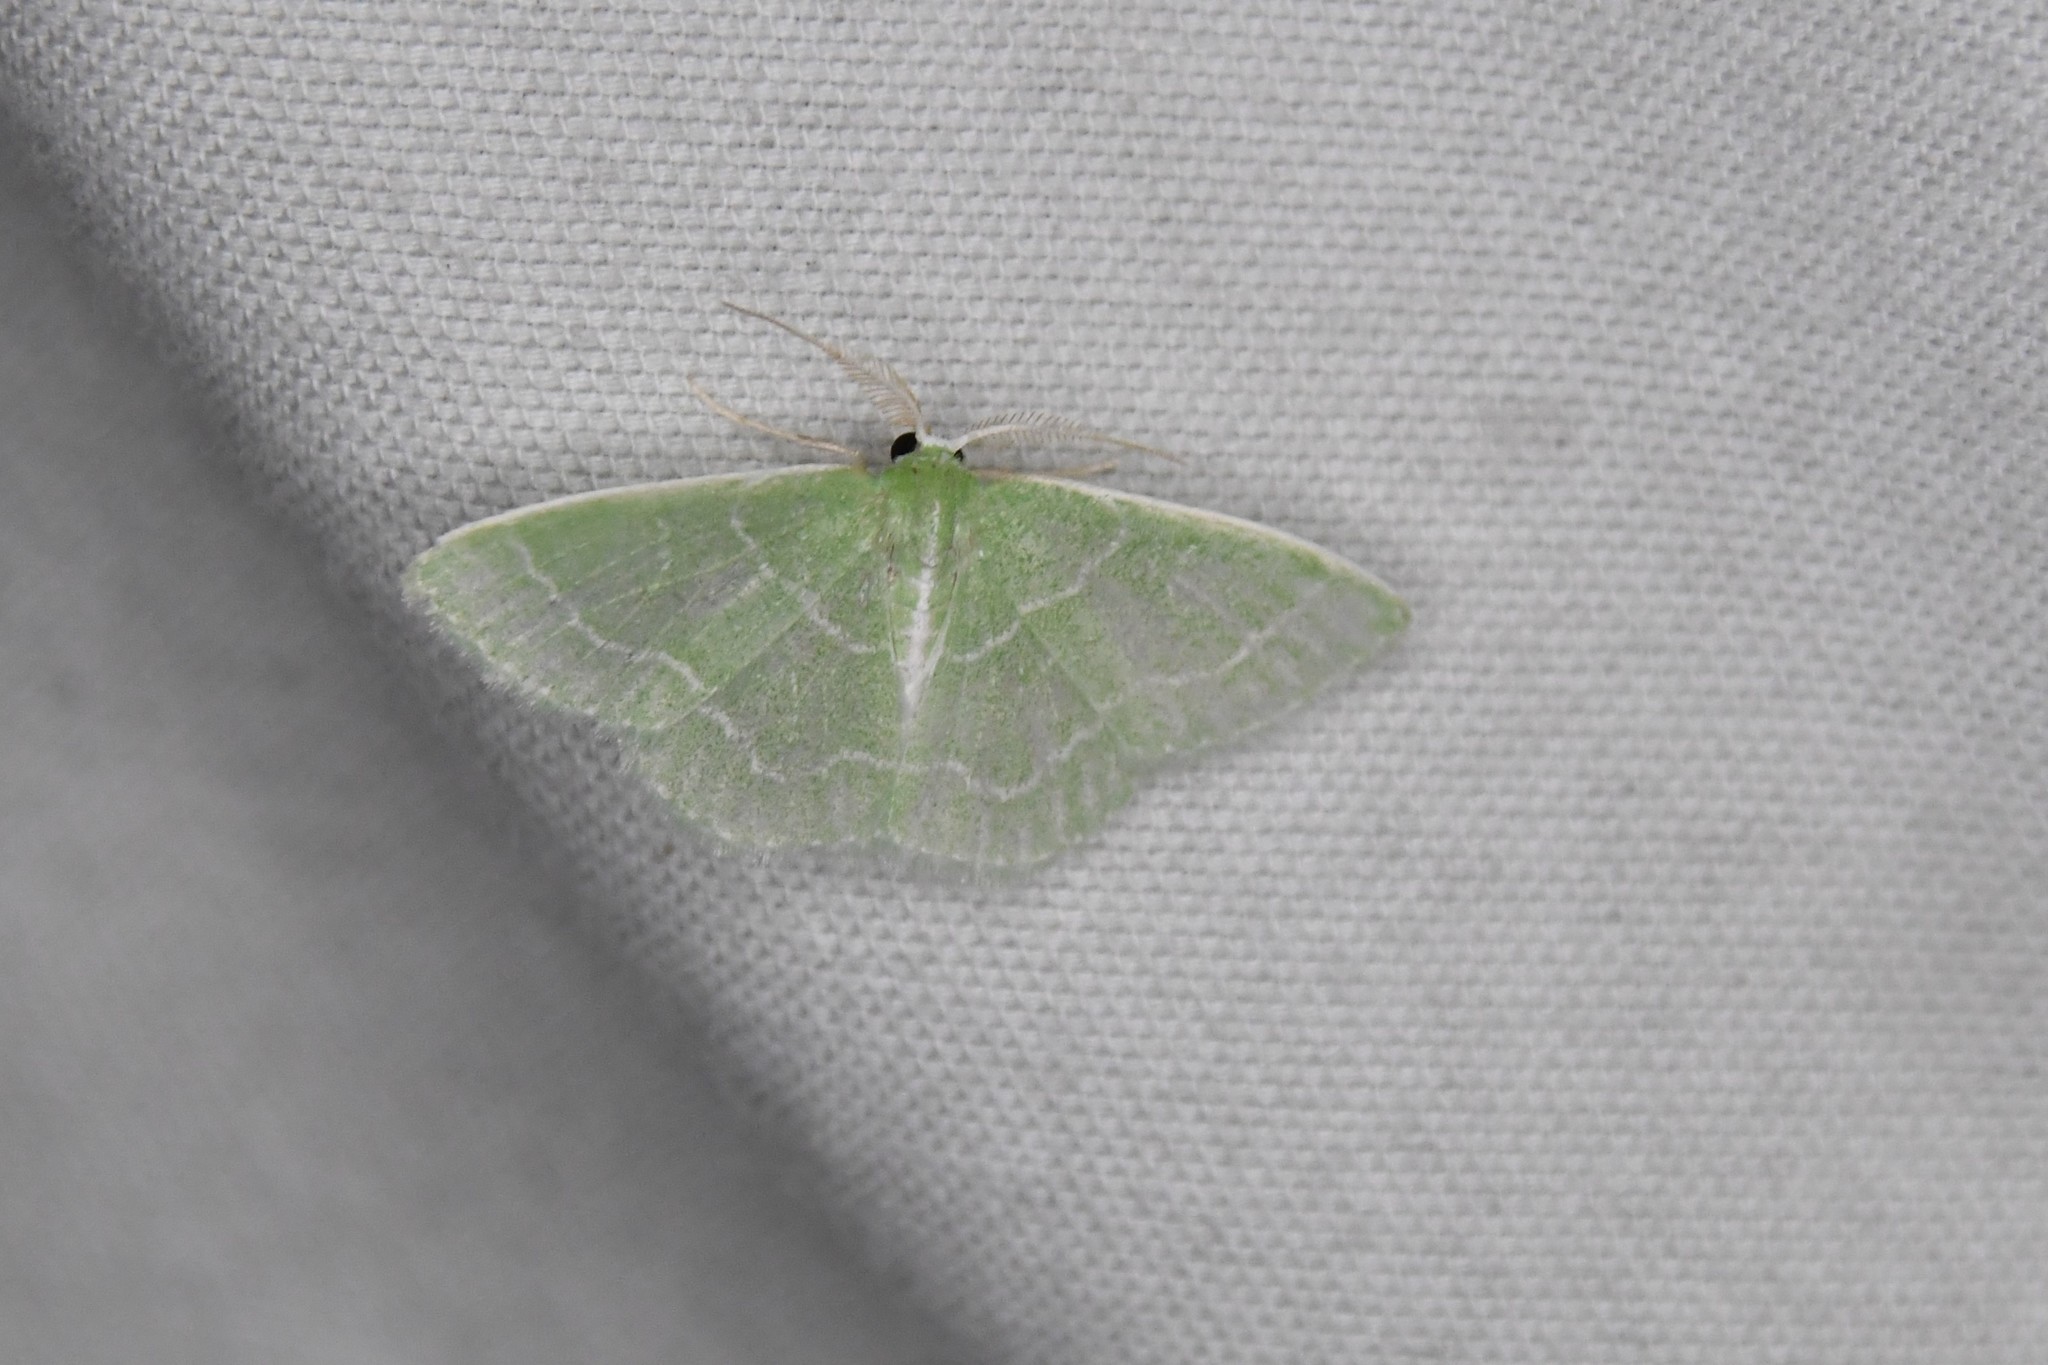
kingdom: Animalia
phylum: Arthropoda
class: Insecta
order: Lepidoptera
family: Geometridae
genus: Synchlora
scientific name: Synchlora aerata
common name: Wavy-lined emerald
